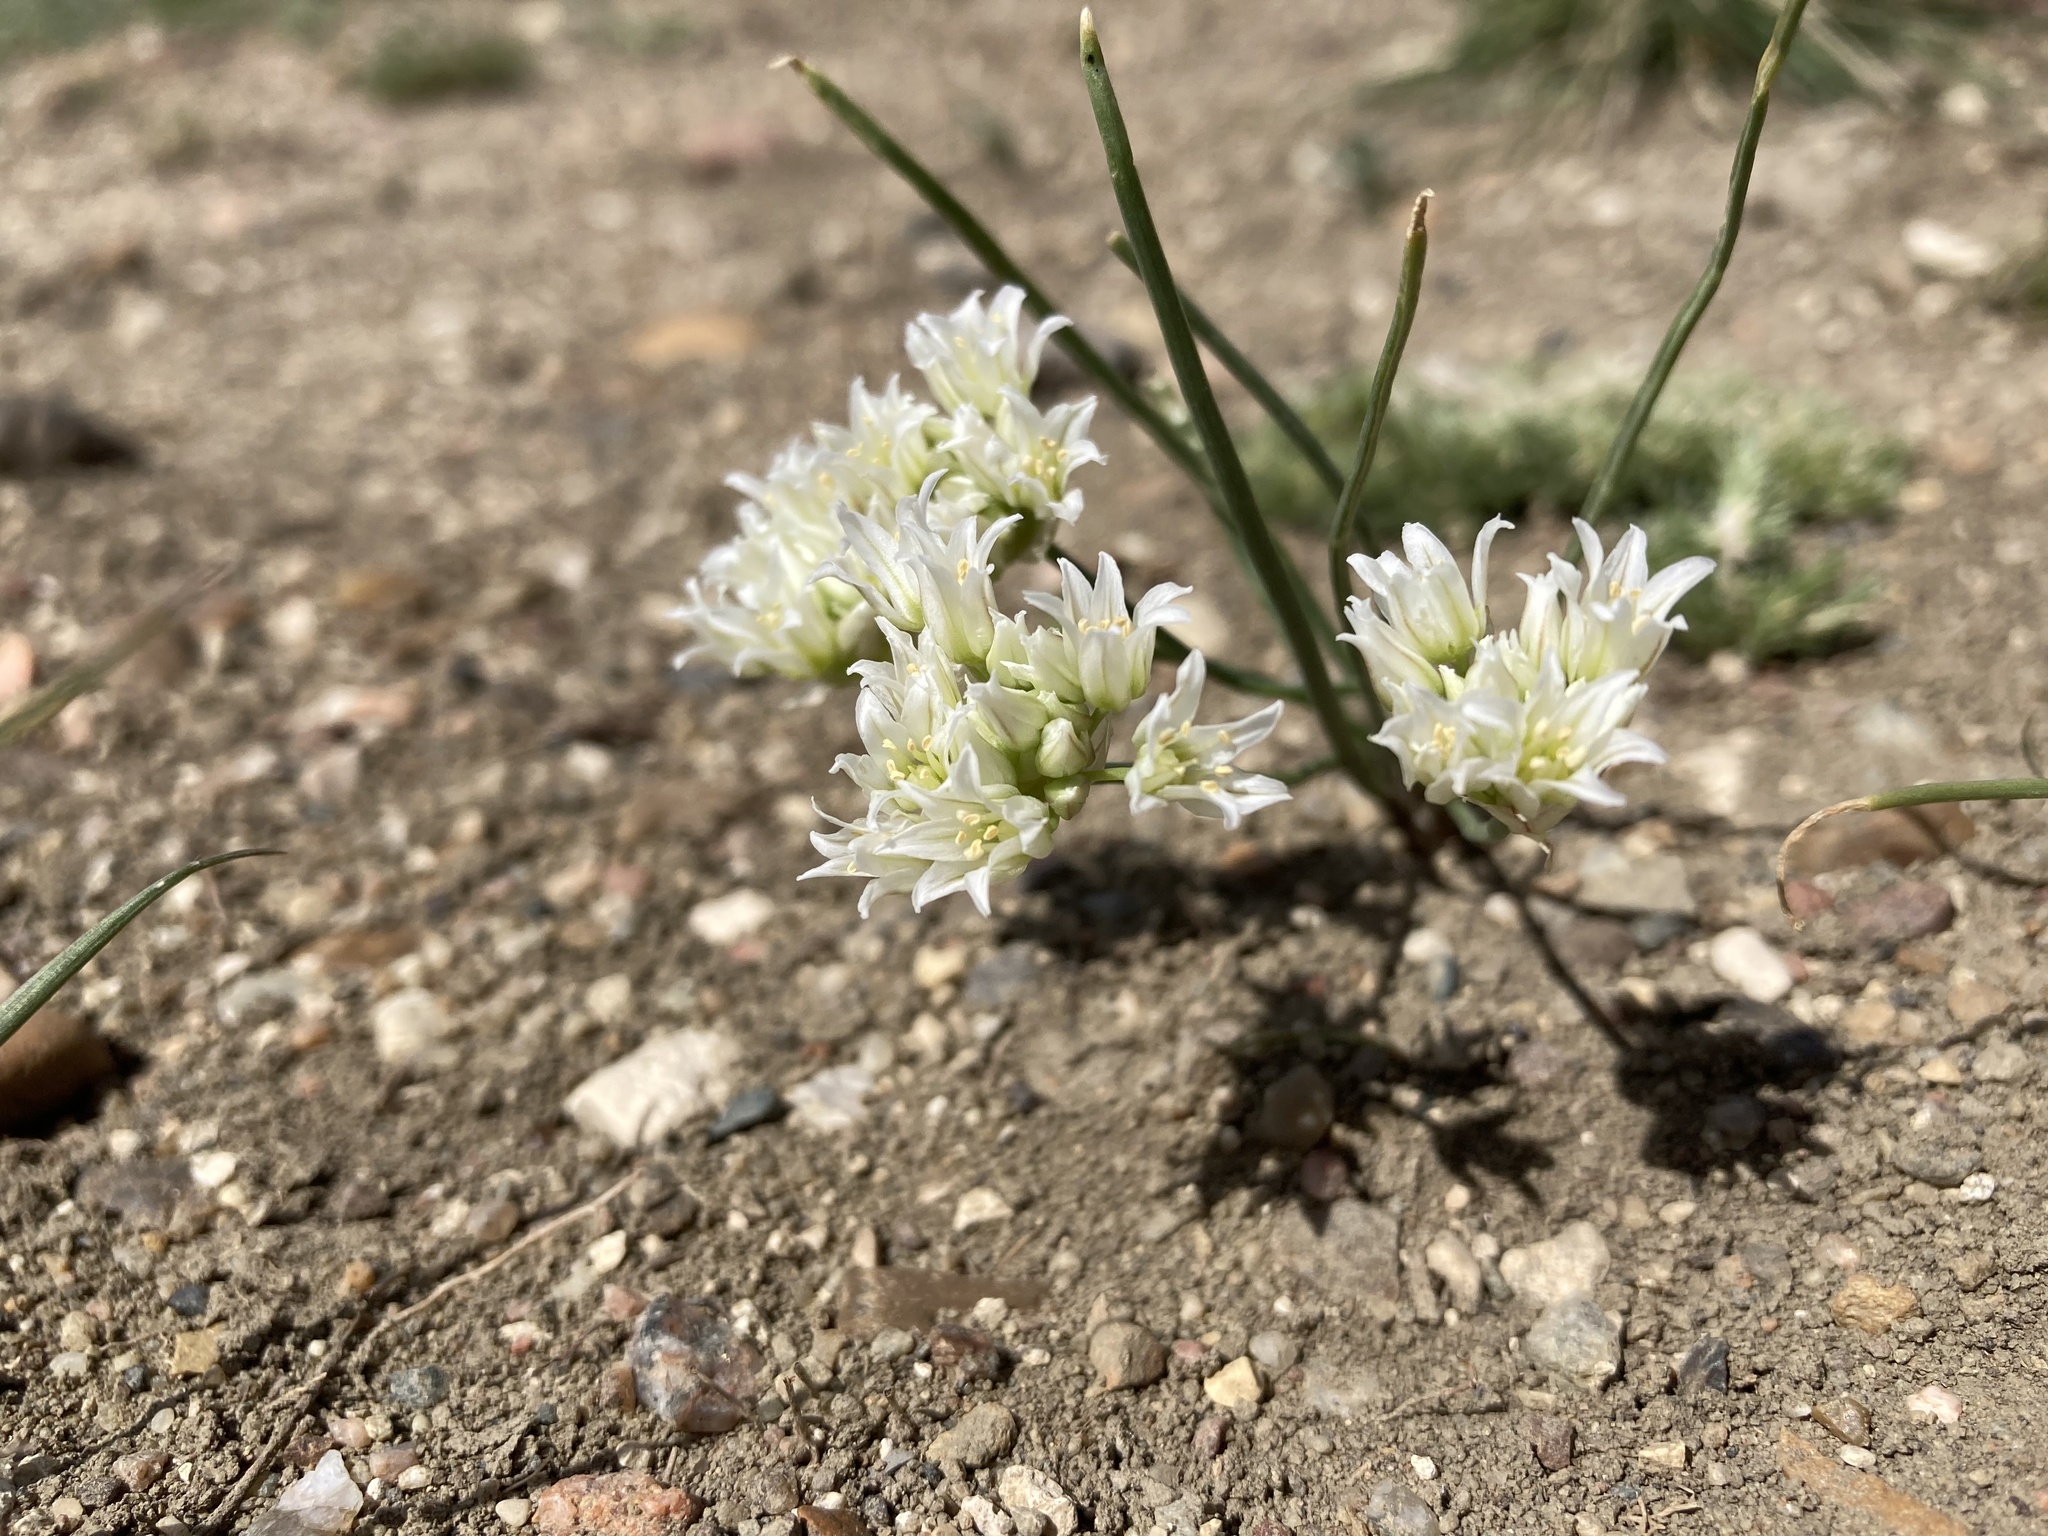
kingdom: Plantae
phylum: Tracheophyta
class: Liliopsida
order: Asparagales
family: Amaryllidaceae
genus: Allium
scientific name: Allium textile
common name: Prairie onion
